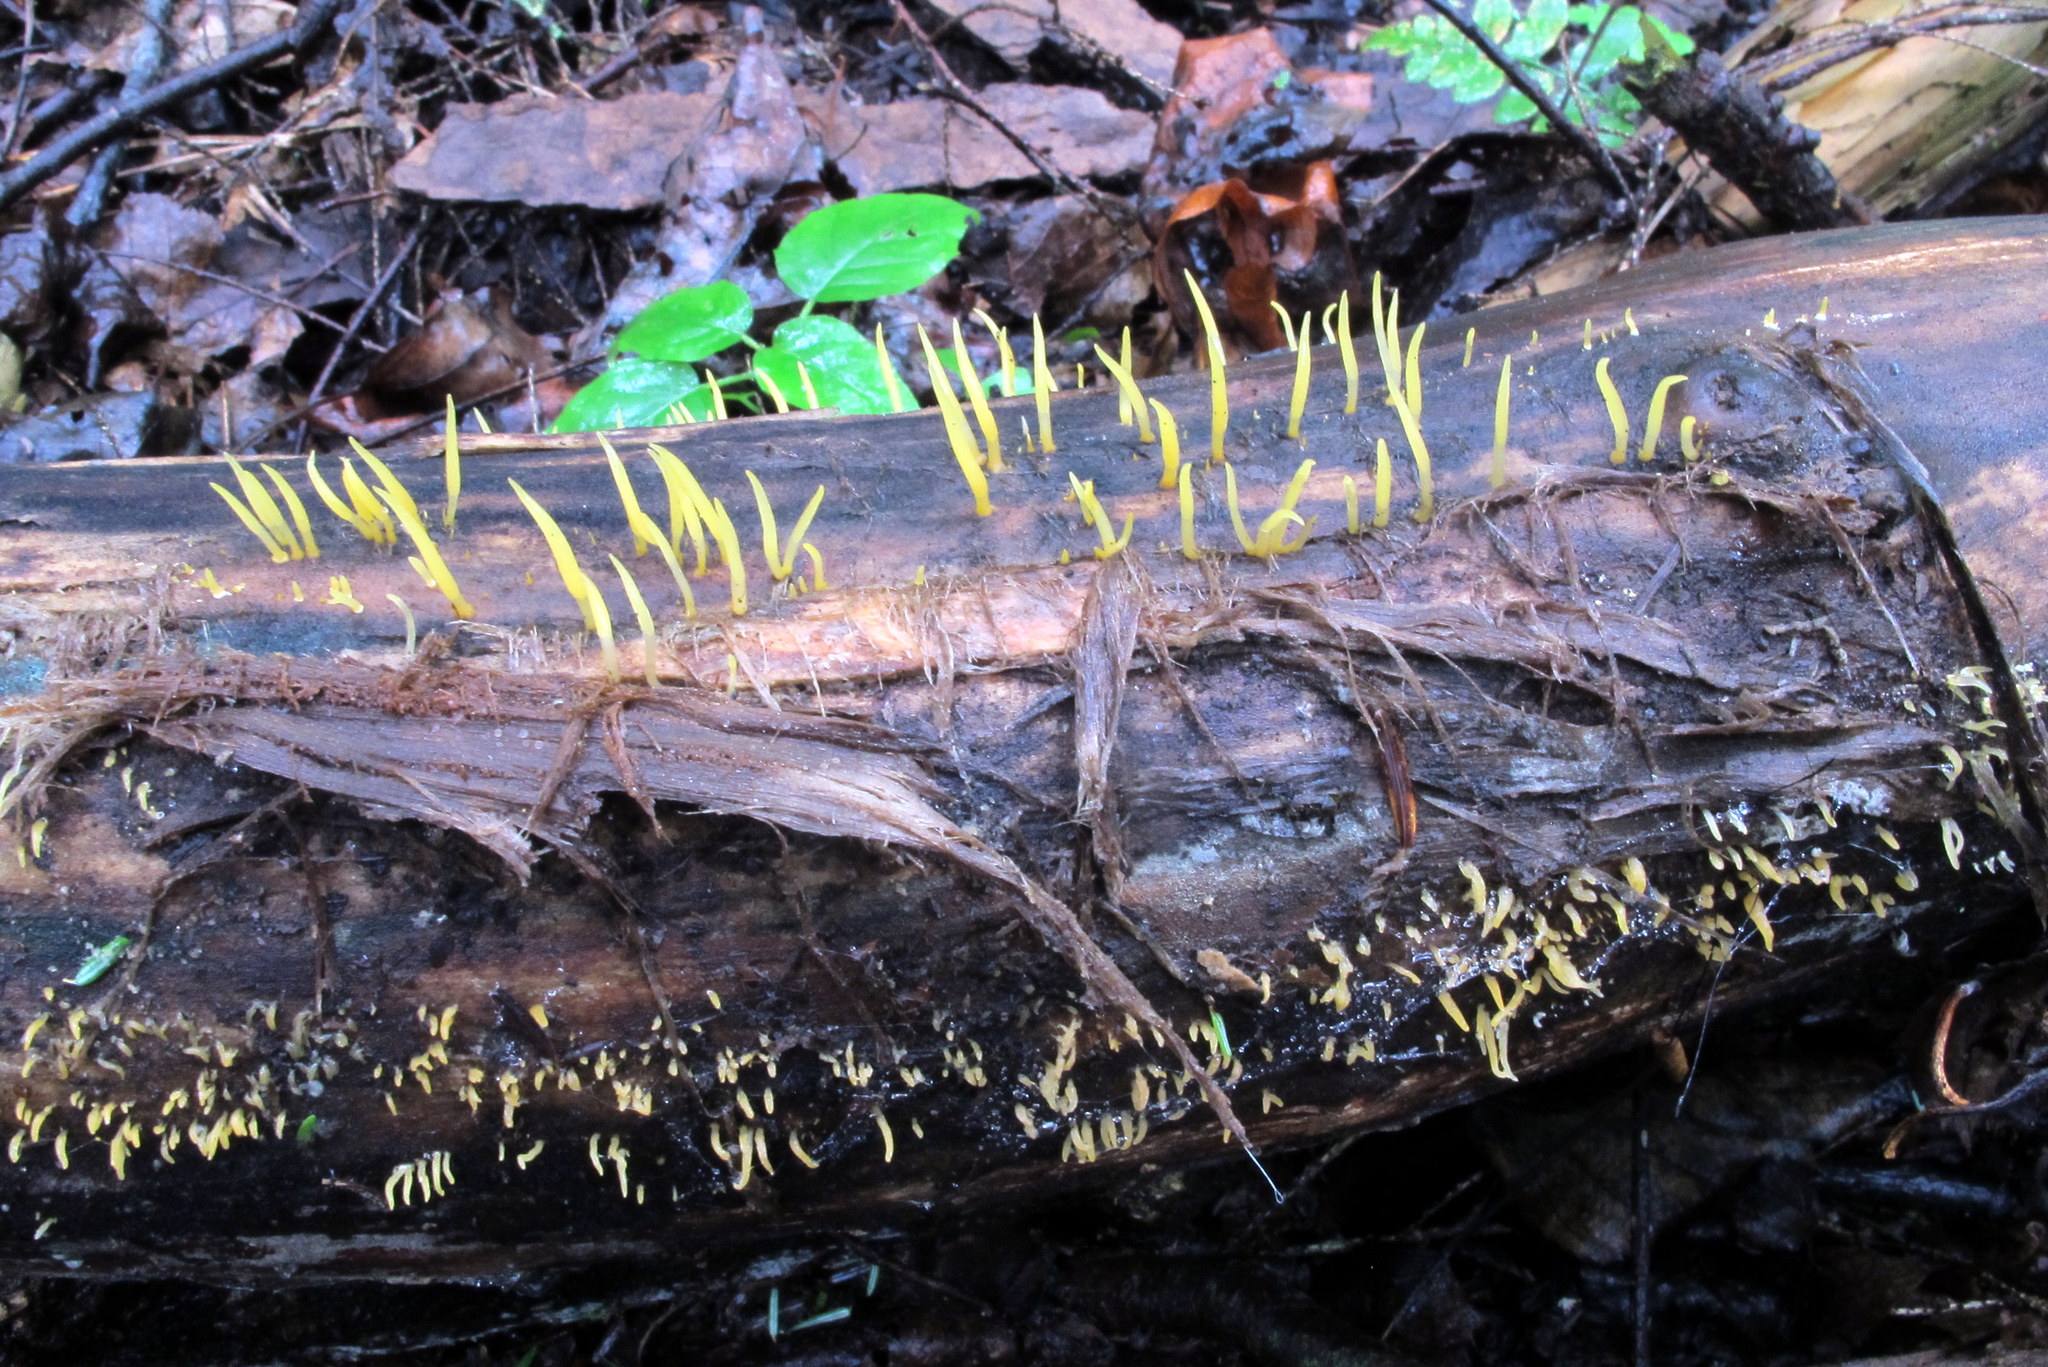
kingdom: Fungi
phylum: Basidiomycota
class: Dacrymycetes
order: Dacrymycetales
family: Dacrymycetaceae
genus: Calocera
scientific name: Calocera cornea
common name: Small stagshorn
